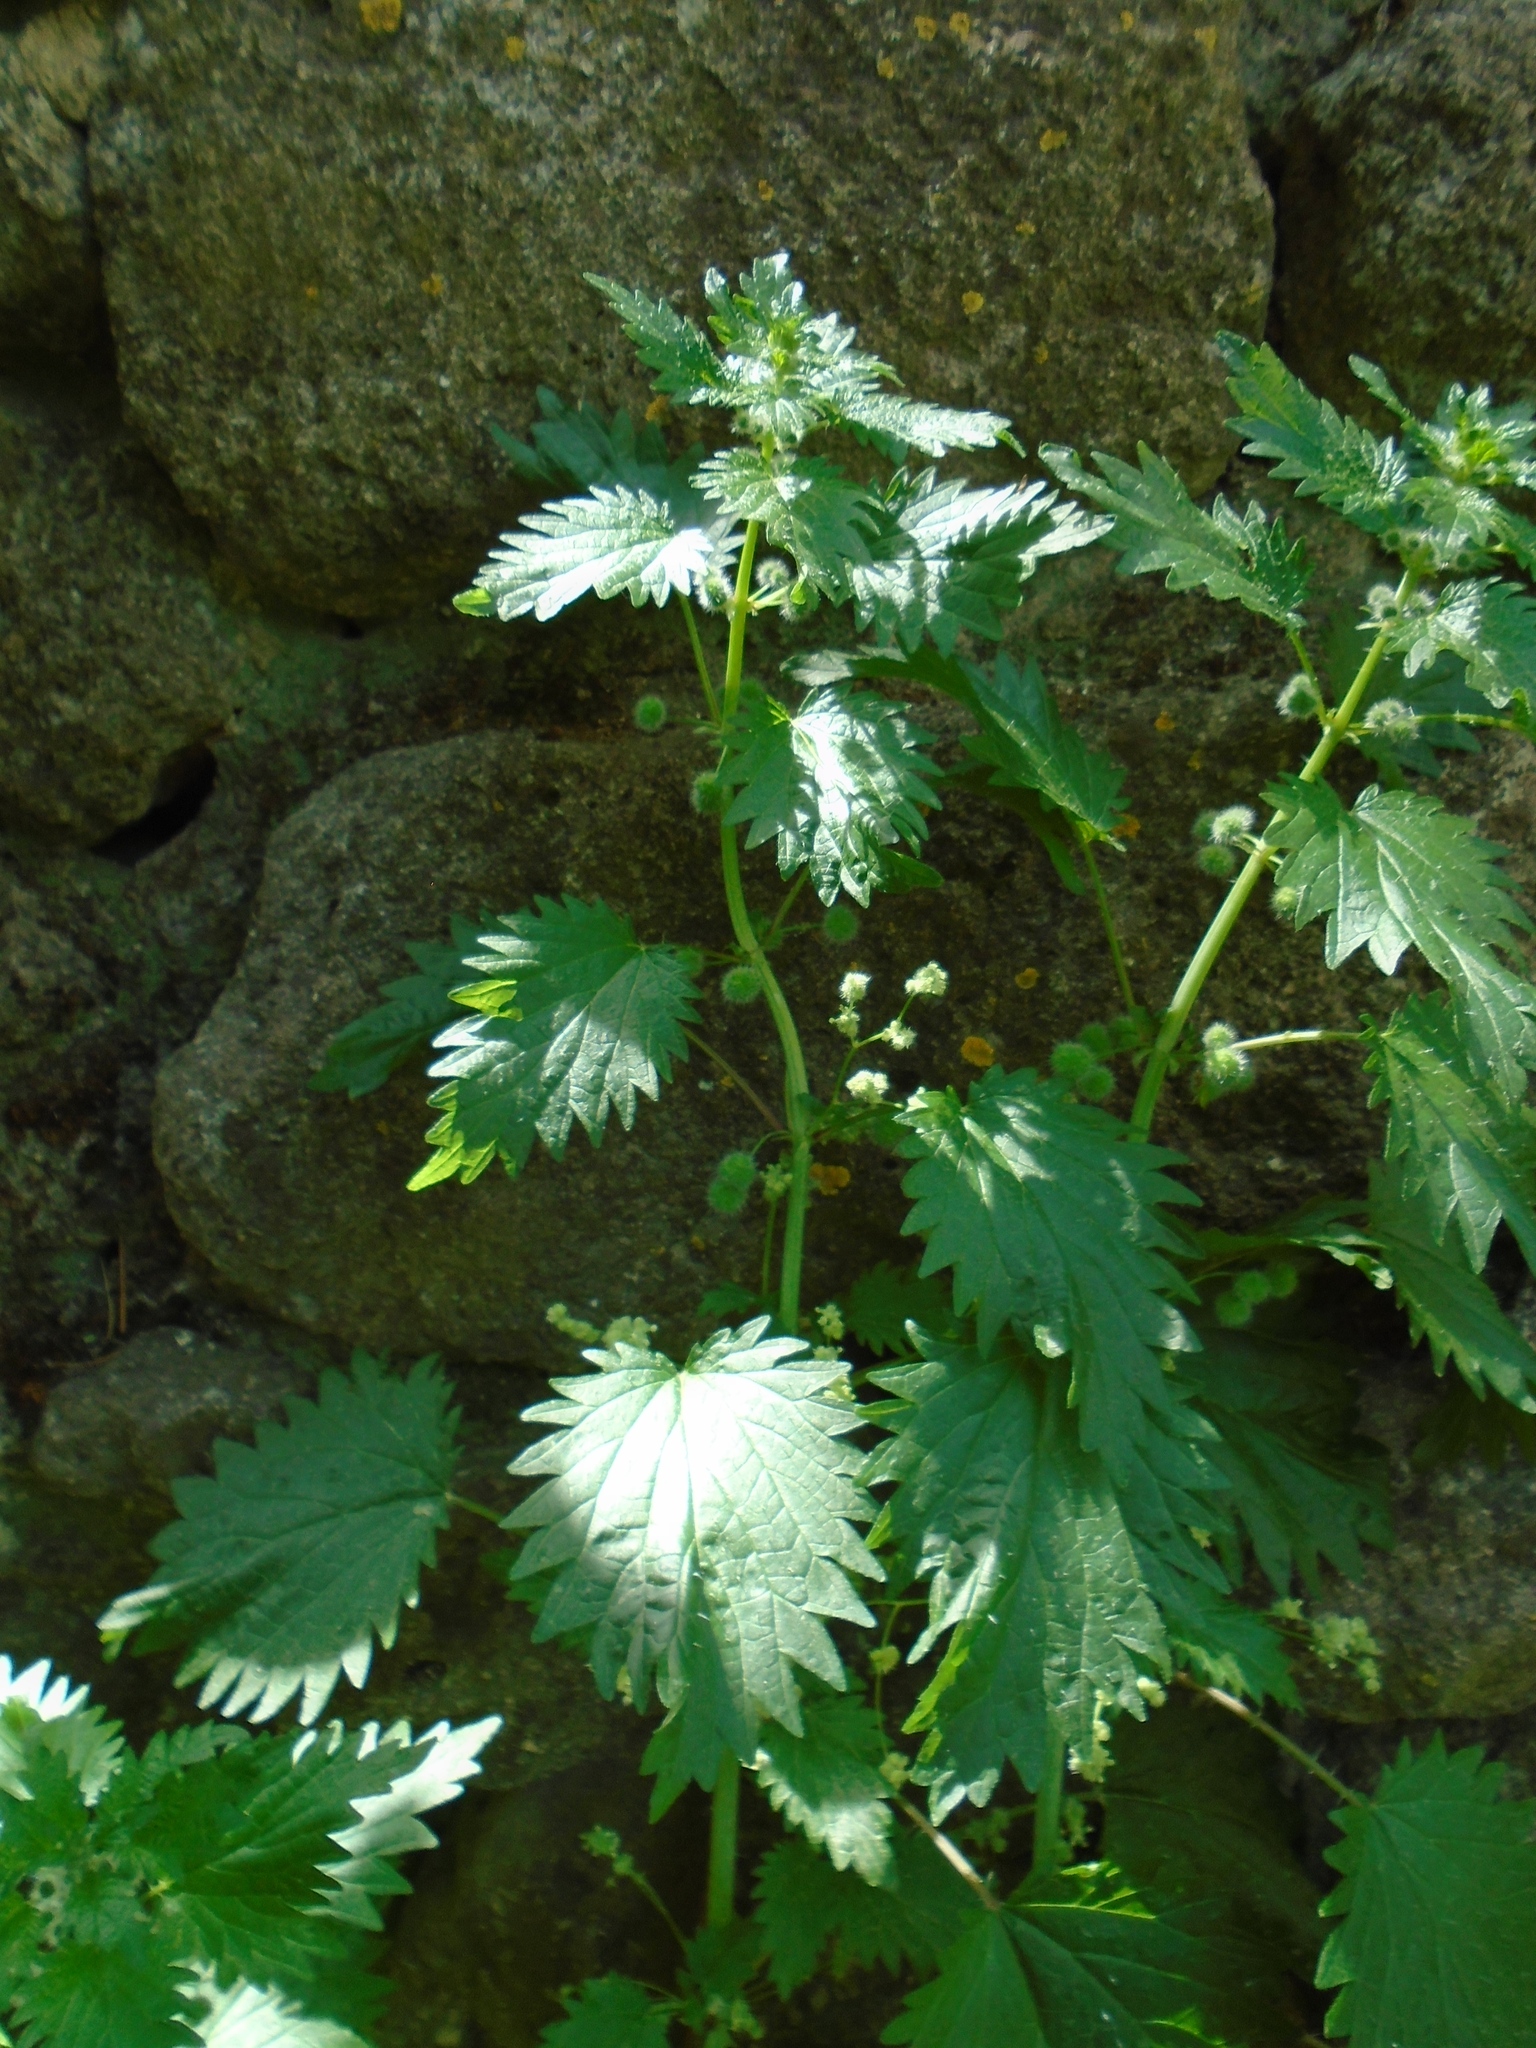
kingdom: Plantae
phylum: Tracheophyta
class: Magnoliopsida
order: Rosales
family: Urticaceae
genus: Urtica
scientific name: Urtica pilulifera
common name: Roman nettle
